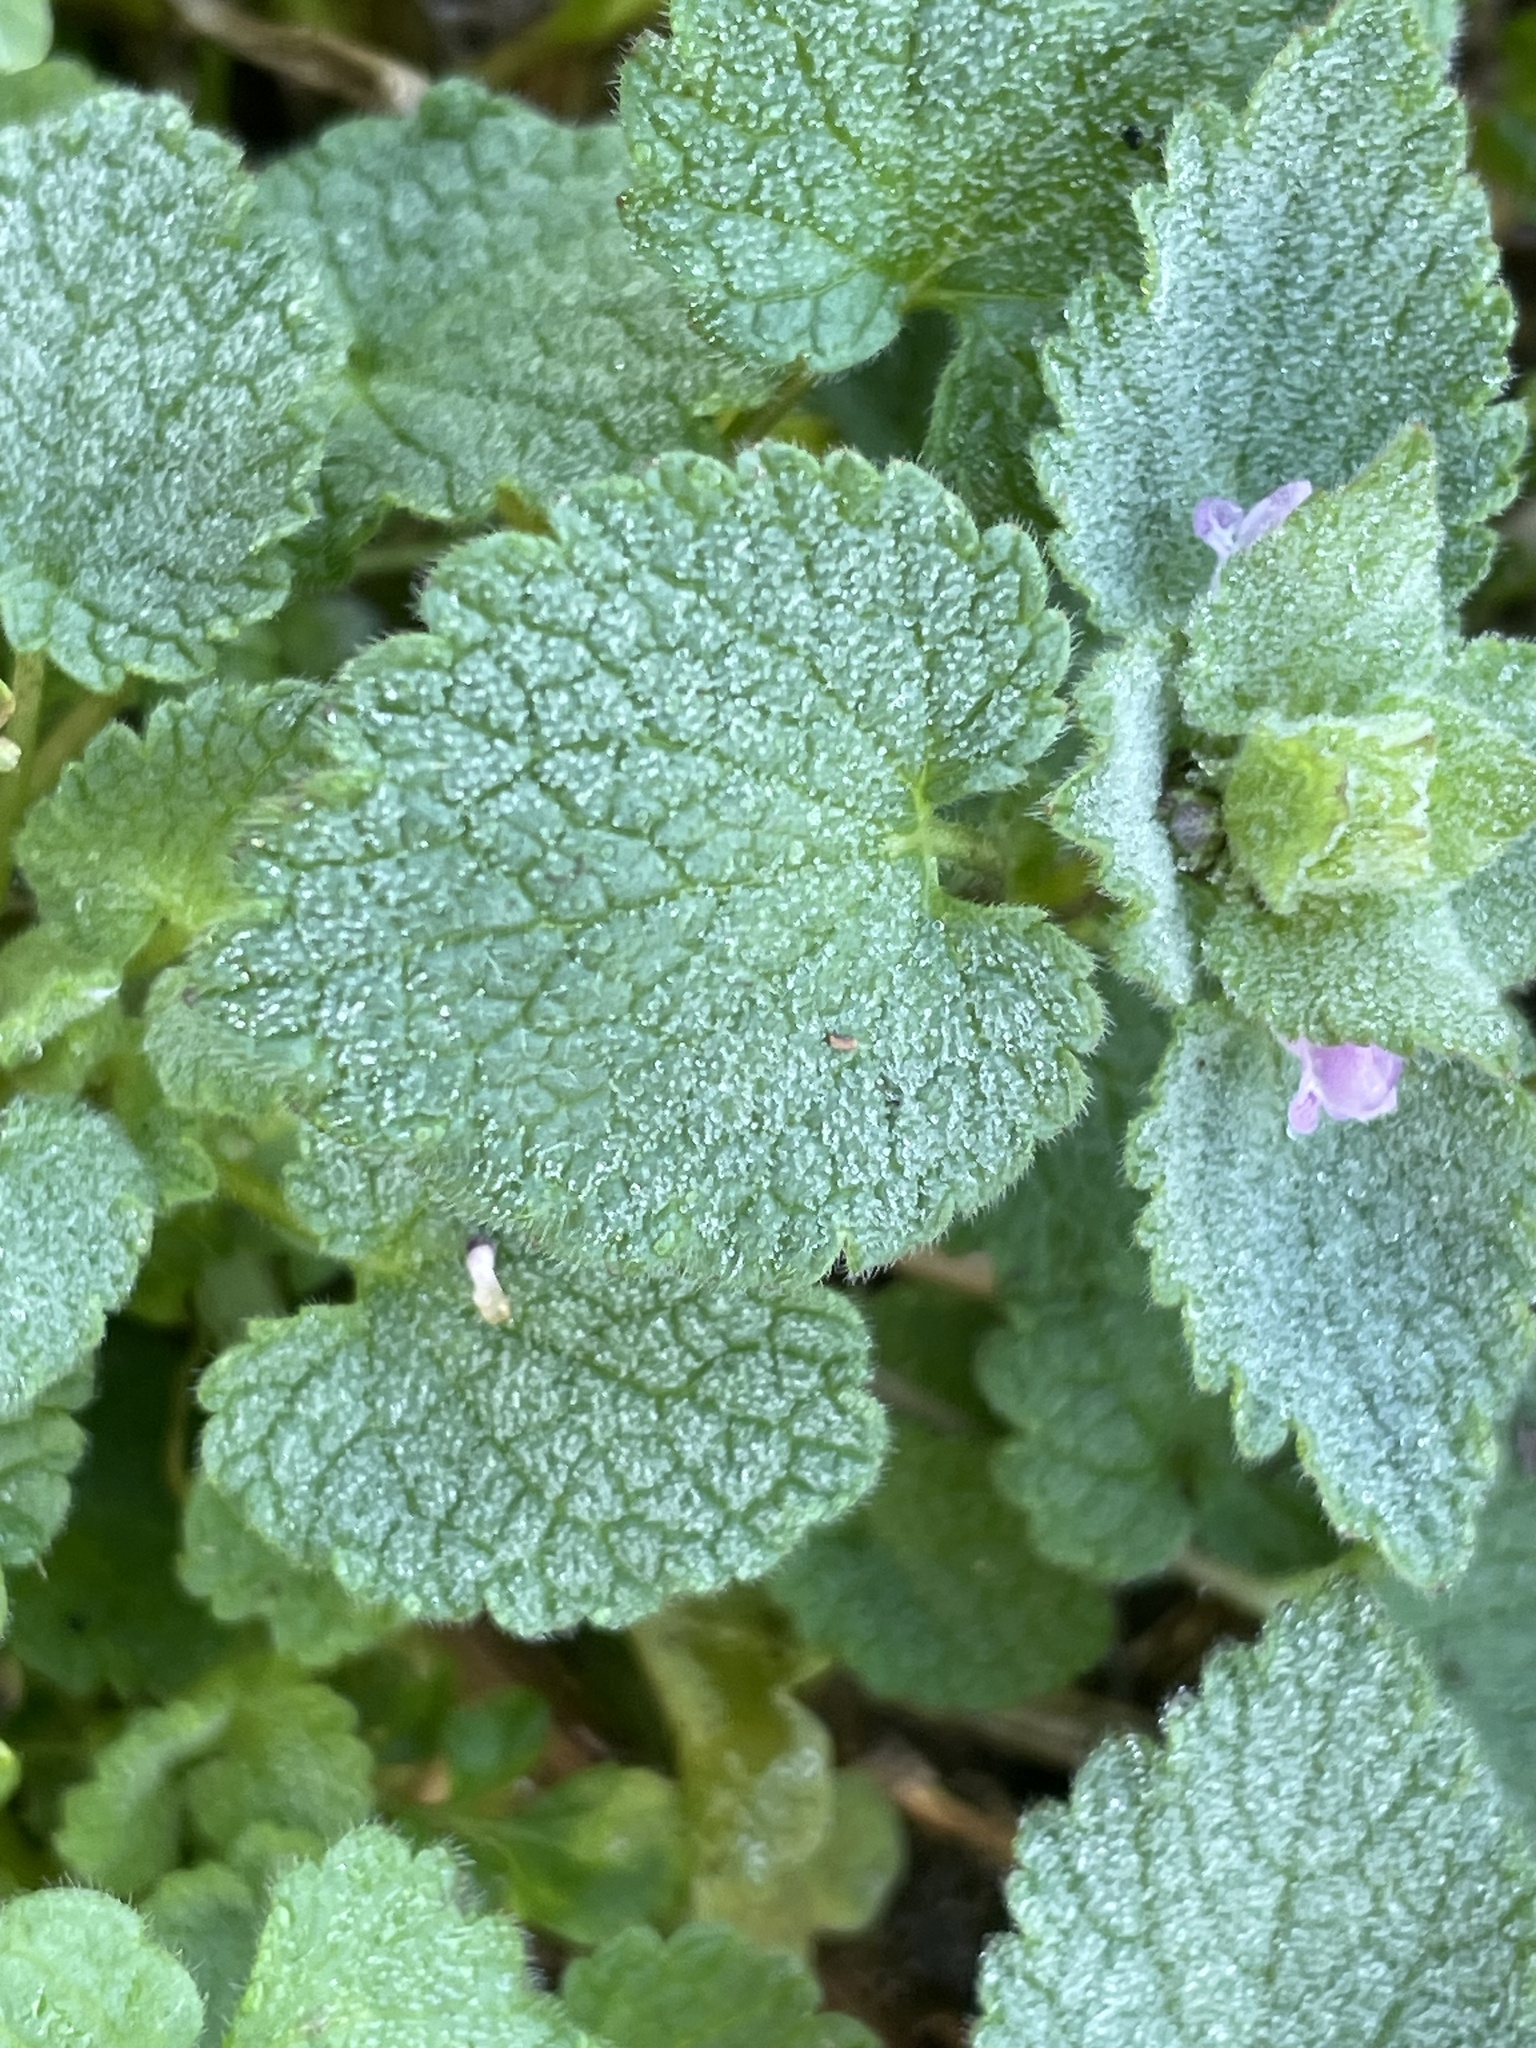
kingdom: Plantae
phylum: Tracheophyta
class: Magnoliopsida
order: Lamiales
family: Lamiaceae
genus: Lamium
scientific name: Lamium purpureum
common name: Red dead-nettle
